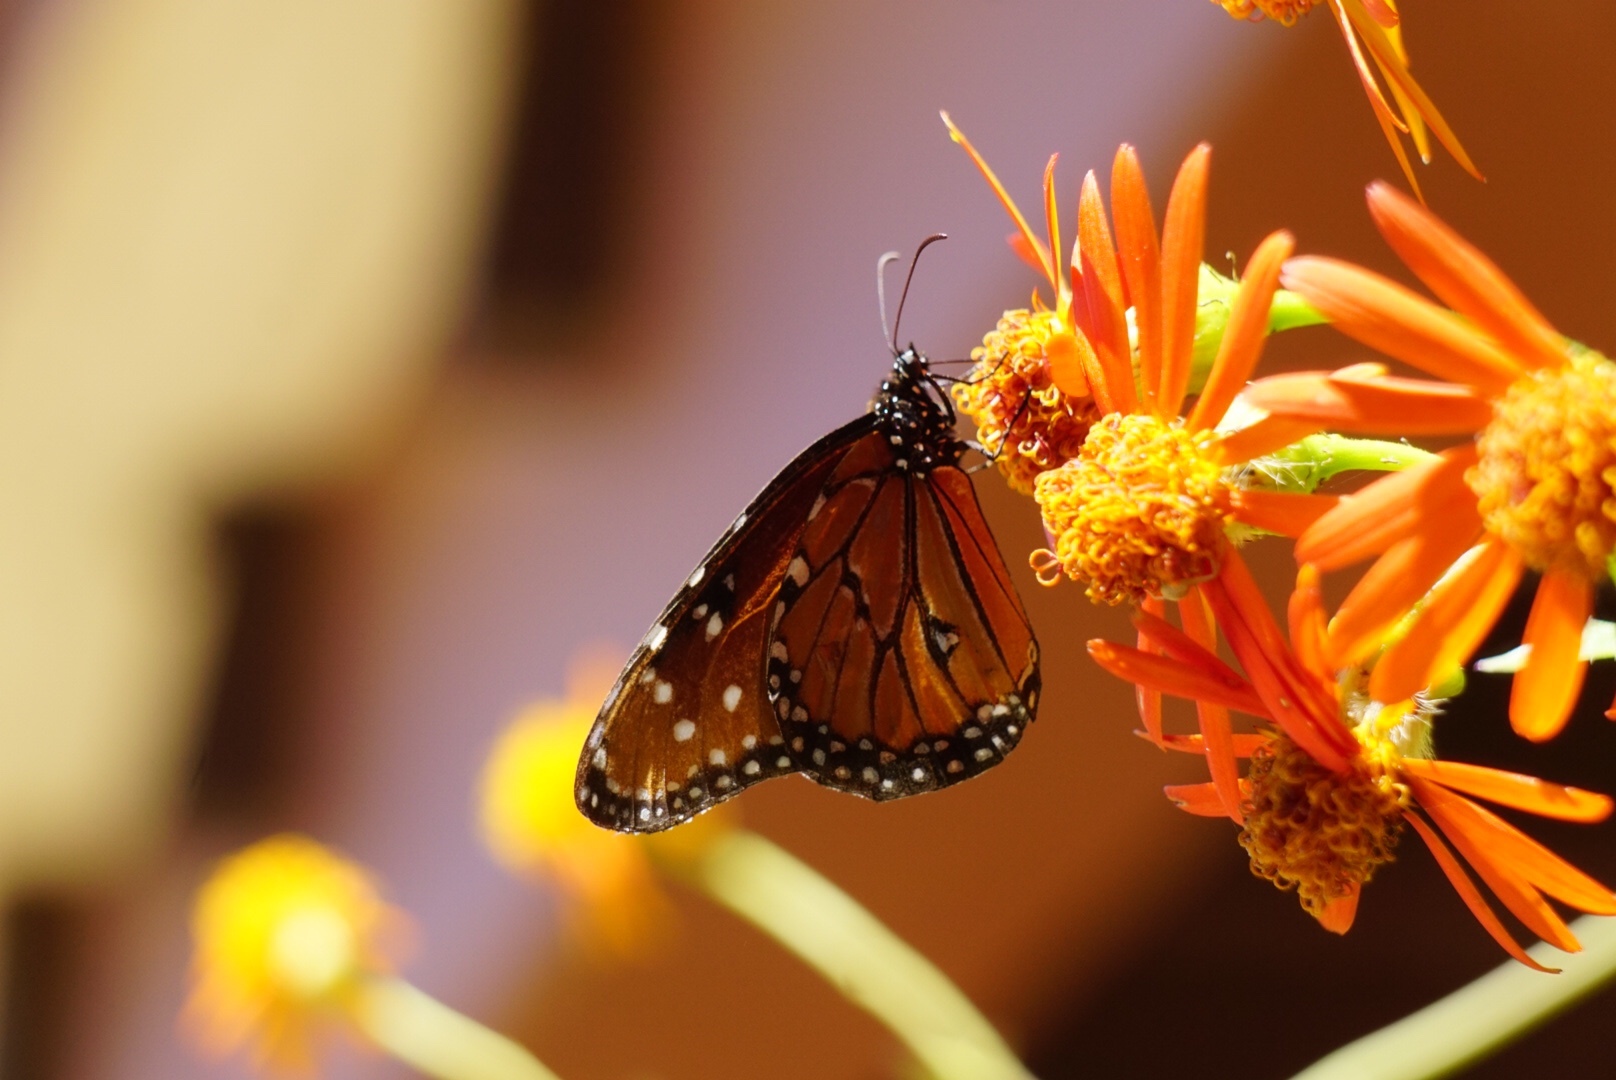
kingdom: Animalia
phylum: Arthropoda
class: Insecta
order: Lepidoptera
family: Nymphalidae
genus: Danaus
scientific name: Danaus gilippus
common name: Queen
